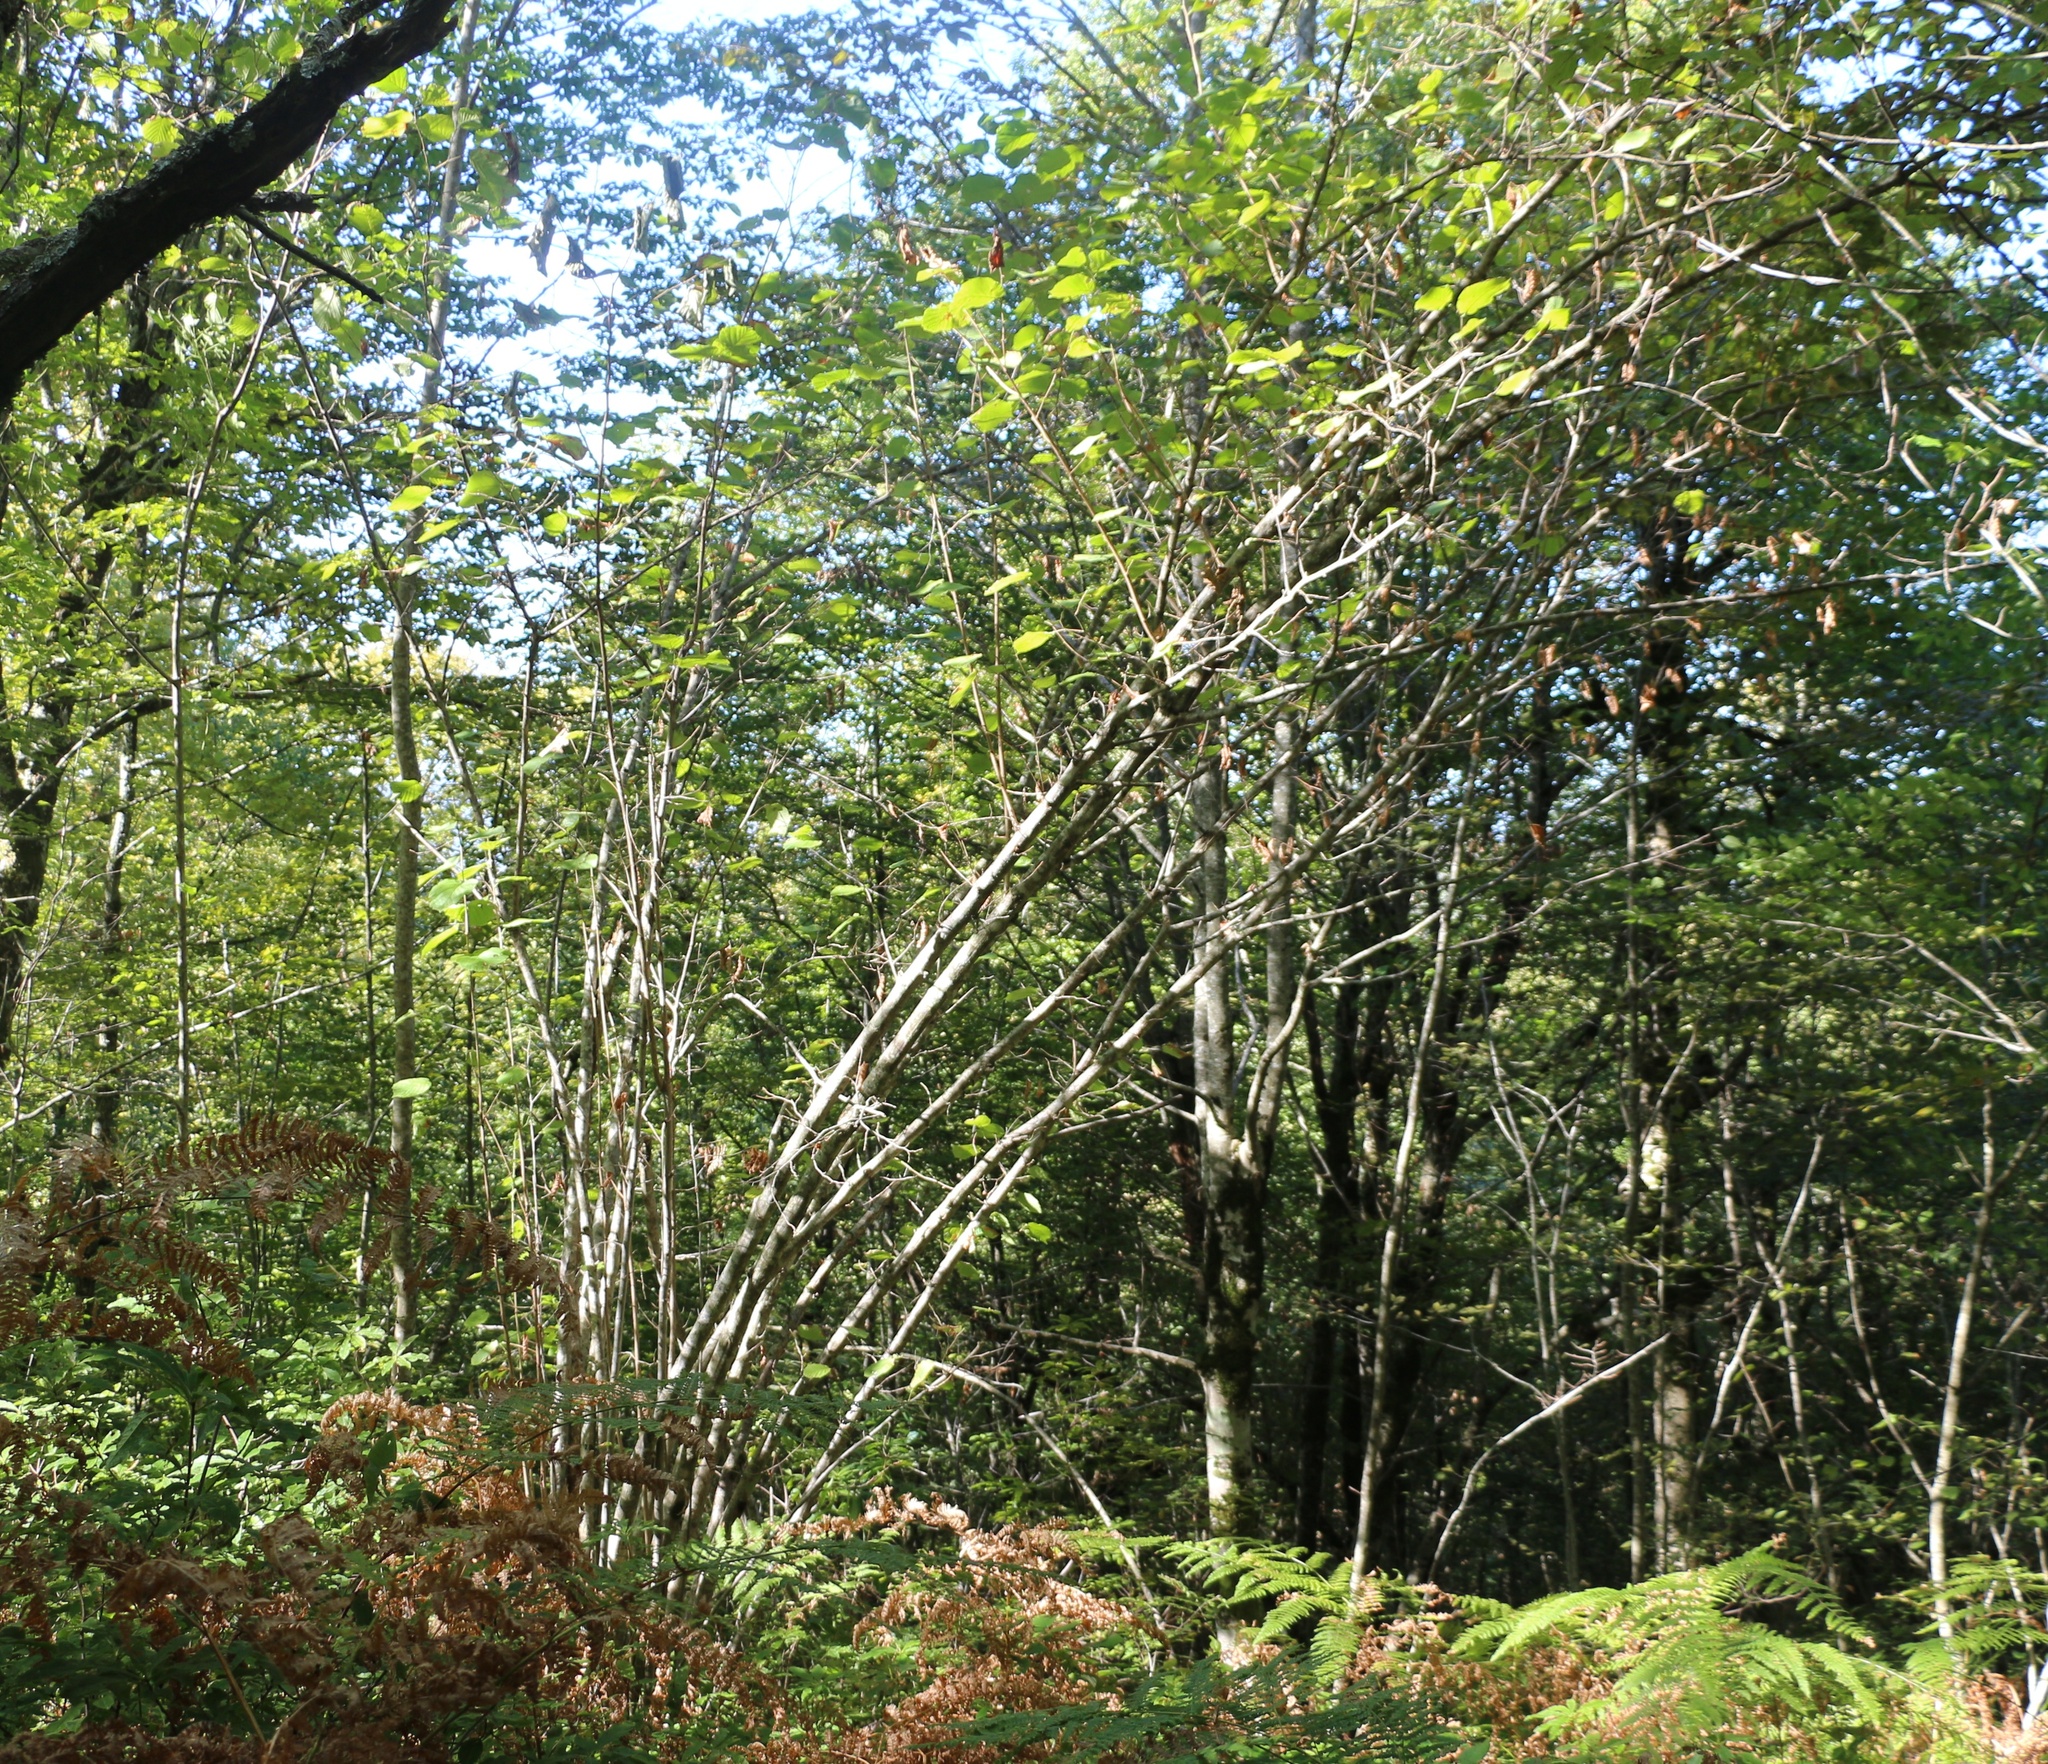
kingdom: Plantae
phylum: Tracheophyta
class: Magnoliopsida
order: Fagales
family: Betulaceae
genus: Corylus
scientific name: Corylus avellana
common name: European hazel
